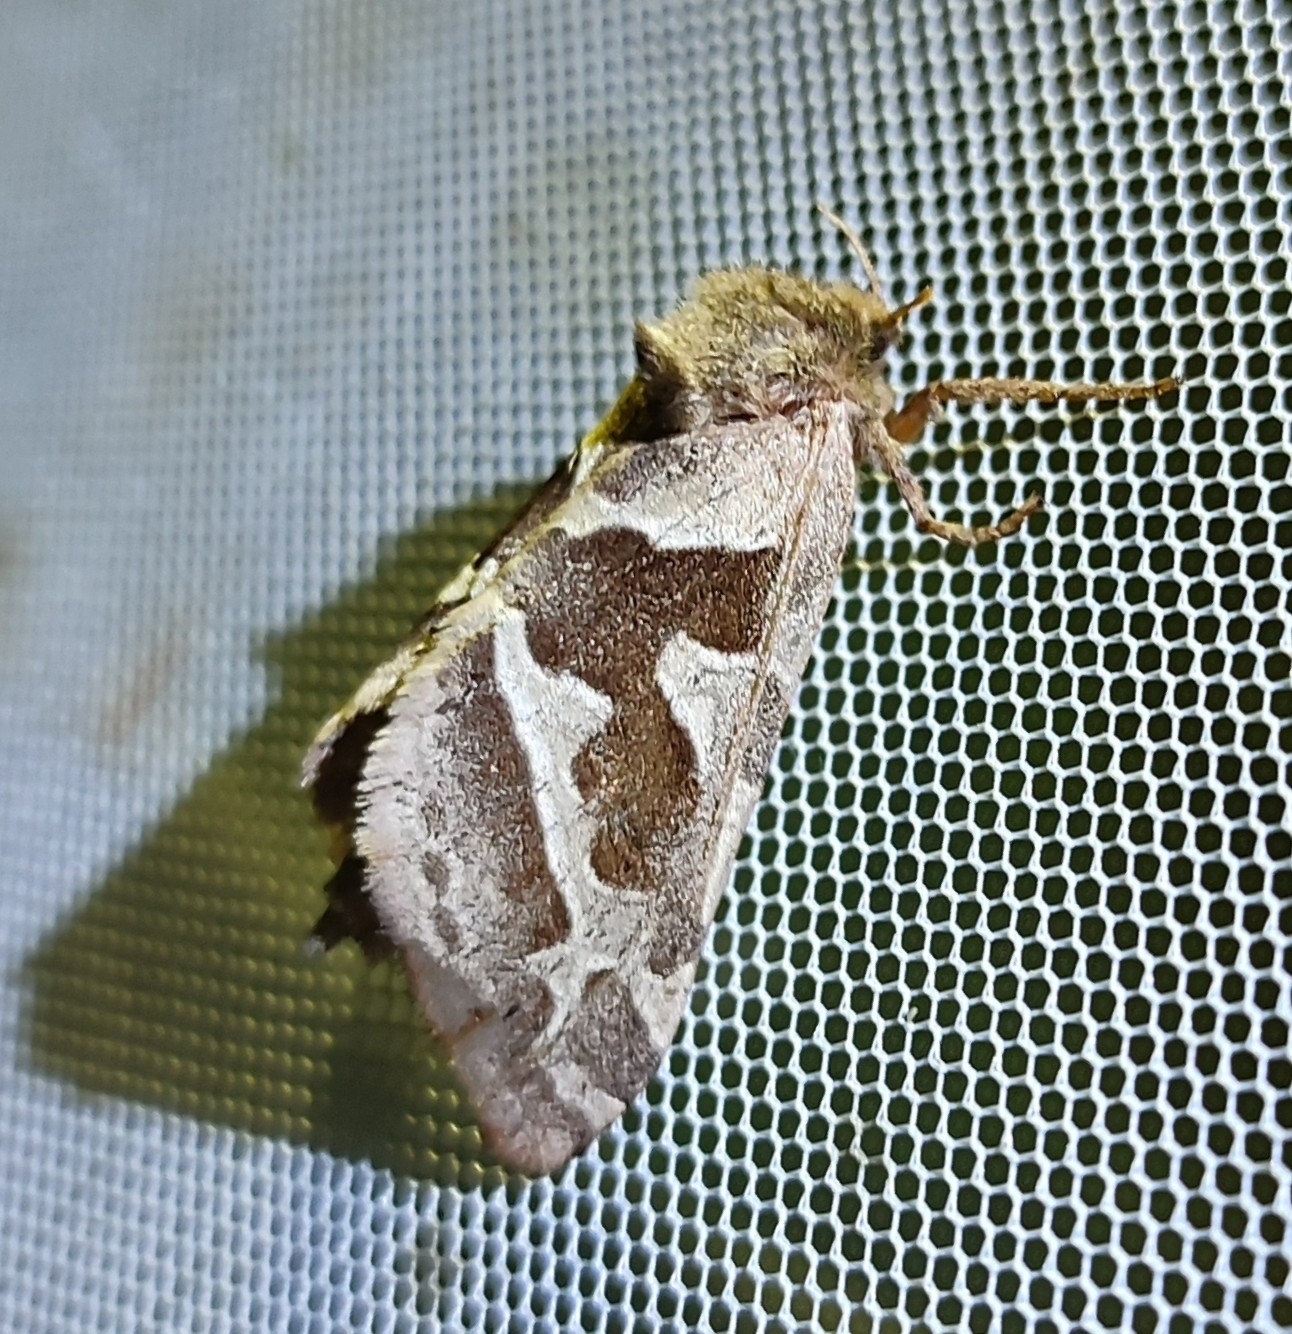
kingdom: Animalia
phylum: Arthropoda
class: Insecta
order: Lepidoptera
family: Hepialidae
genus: Triodia
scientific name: Triodia sylvina
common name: Orange swift
